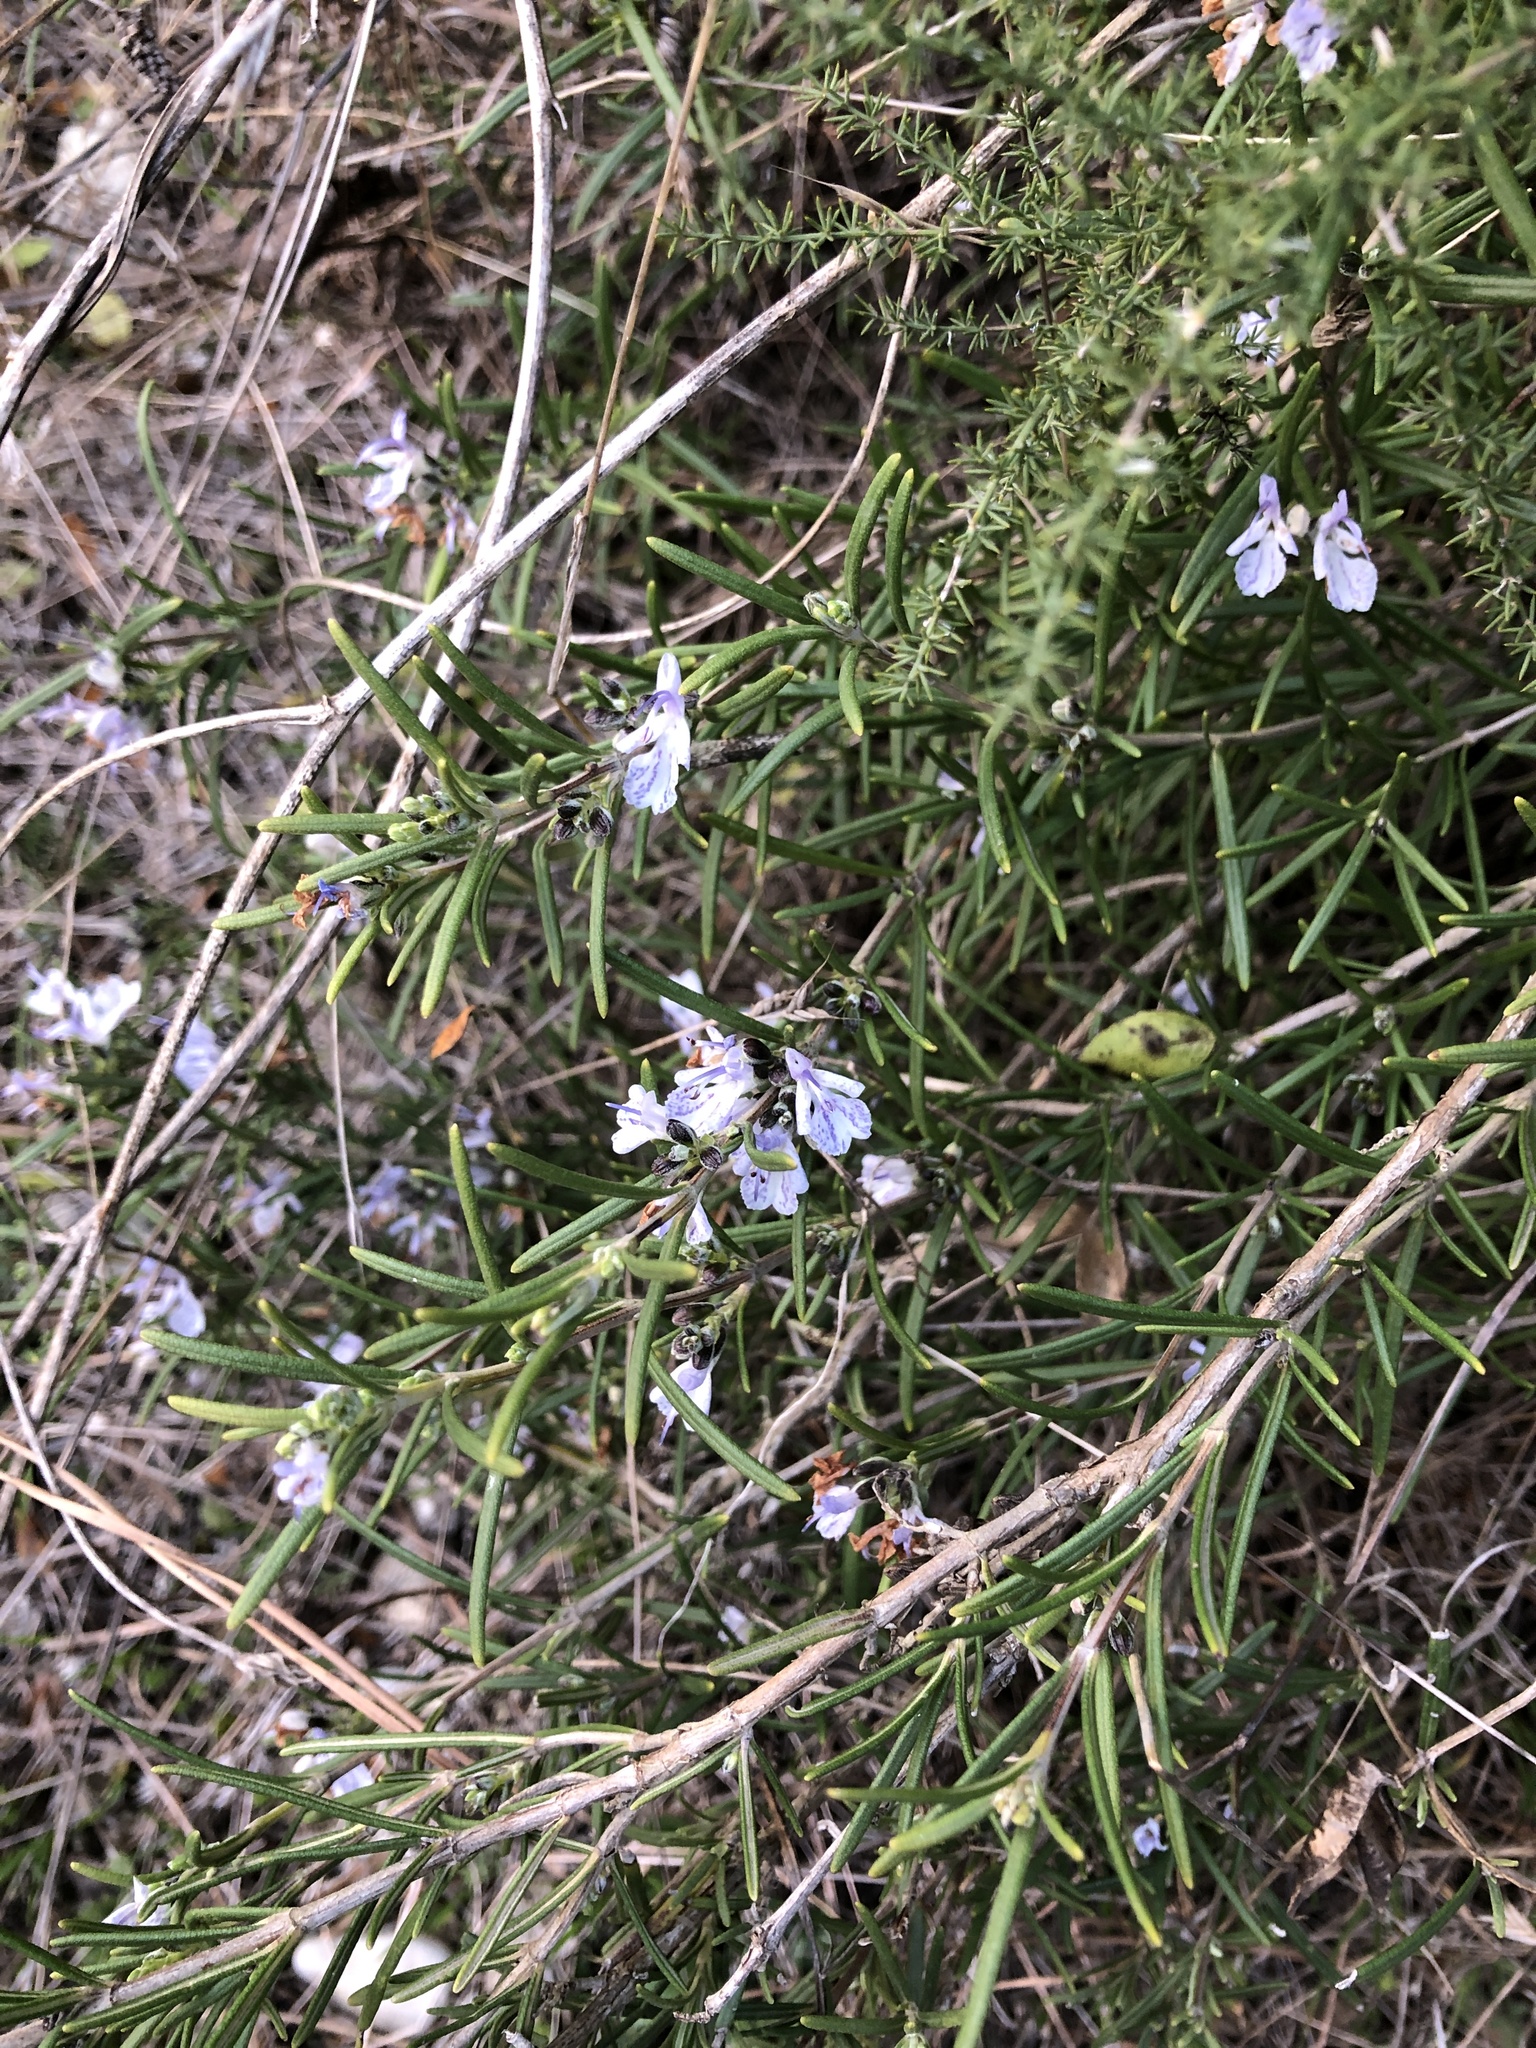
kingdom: Plantae
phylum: Tracheophyta
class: Magnoliopsida
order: Lamiales
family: Lamiaceae
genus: Salvia
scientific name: Salvia rosmarinus
